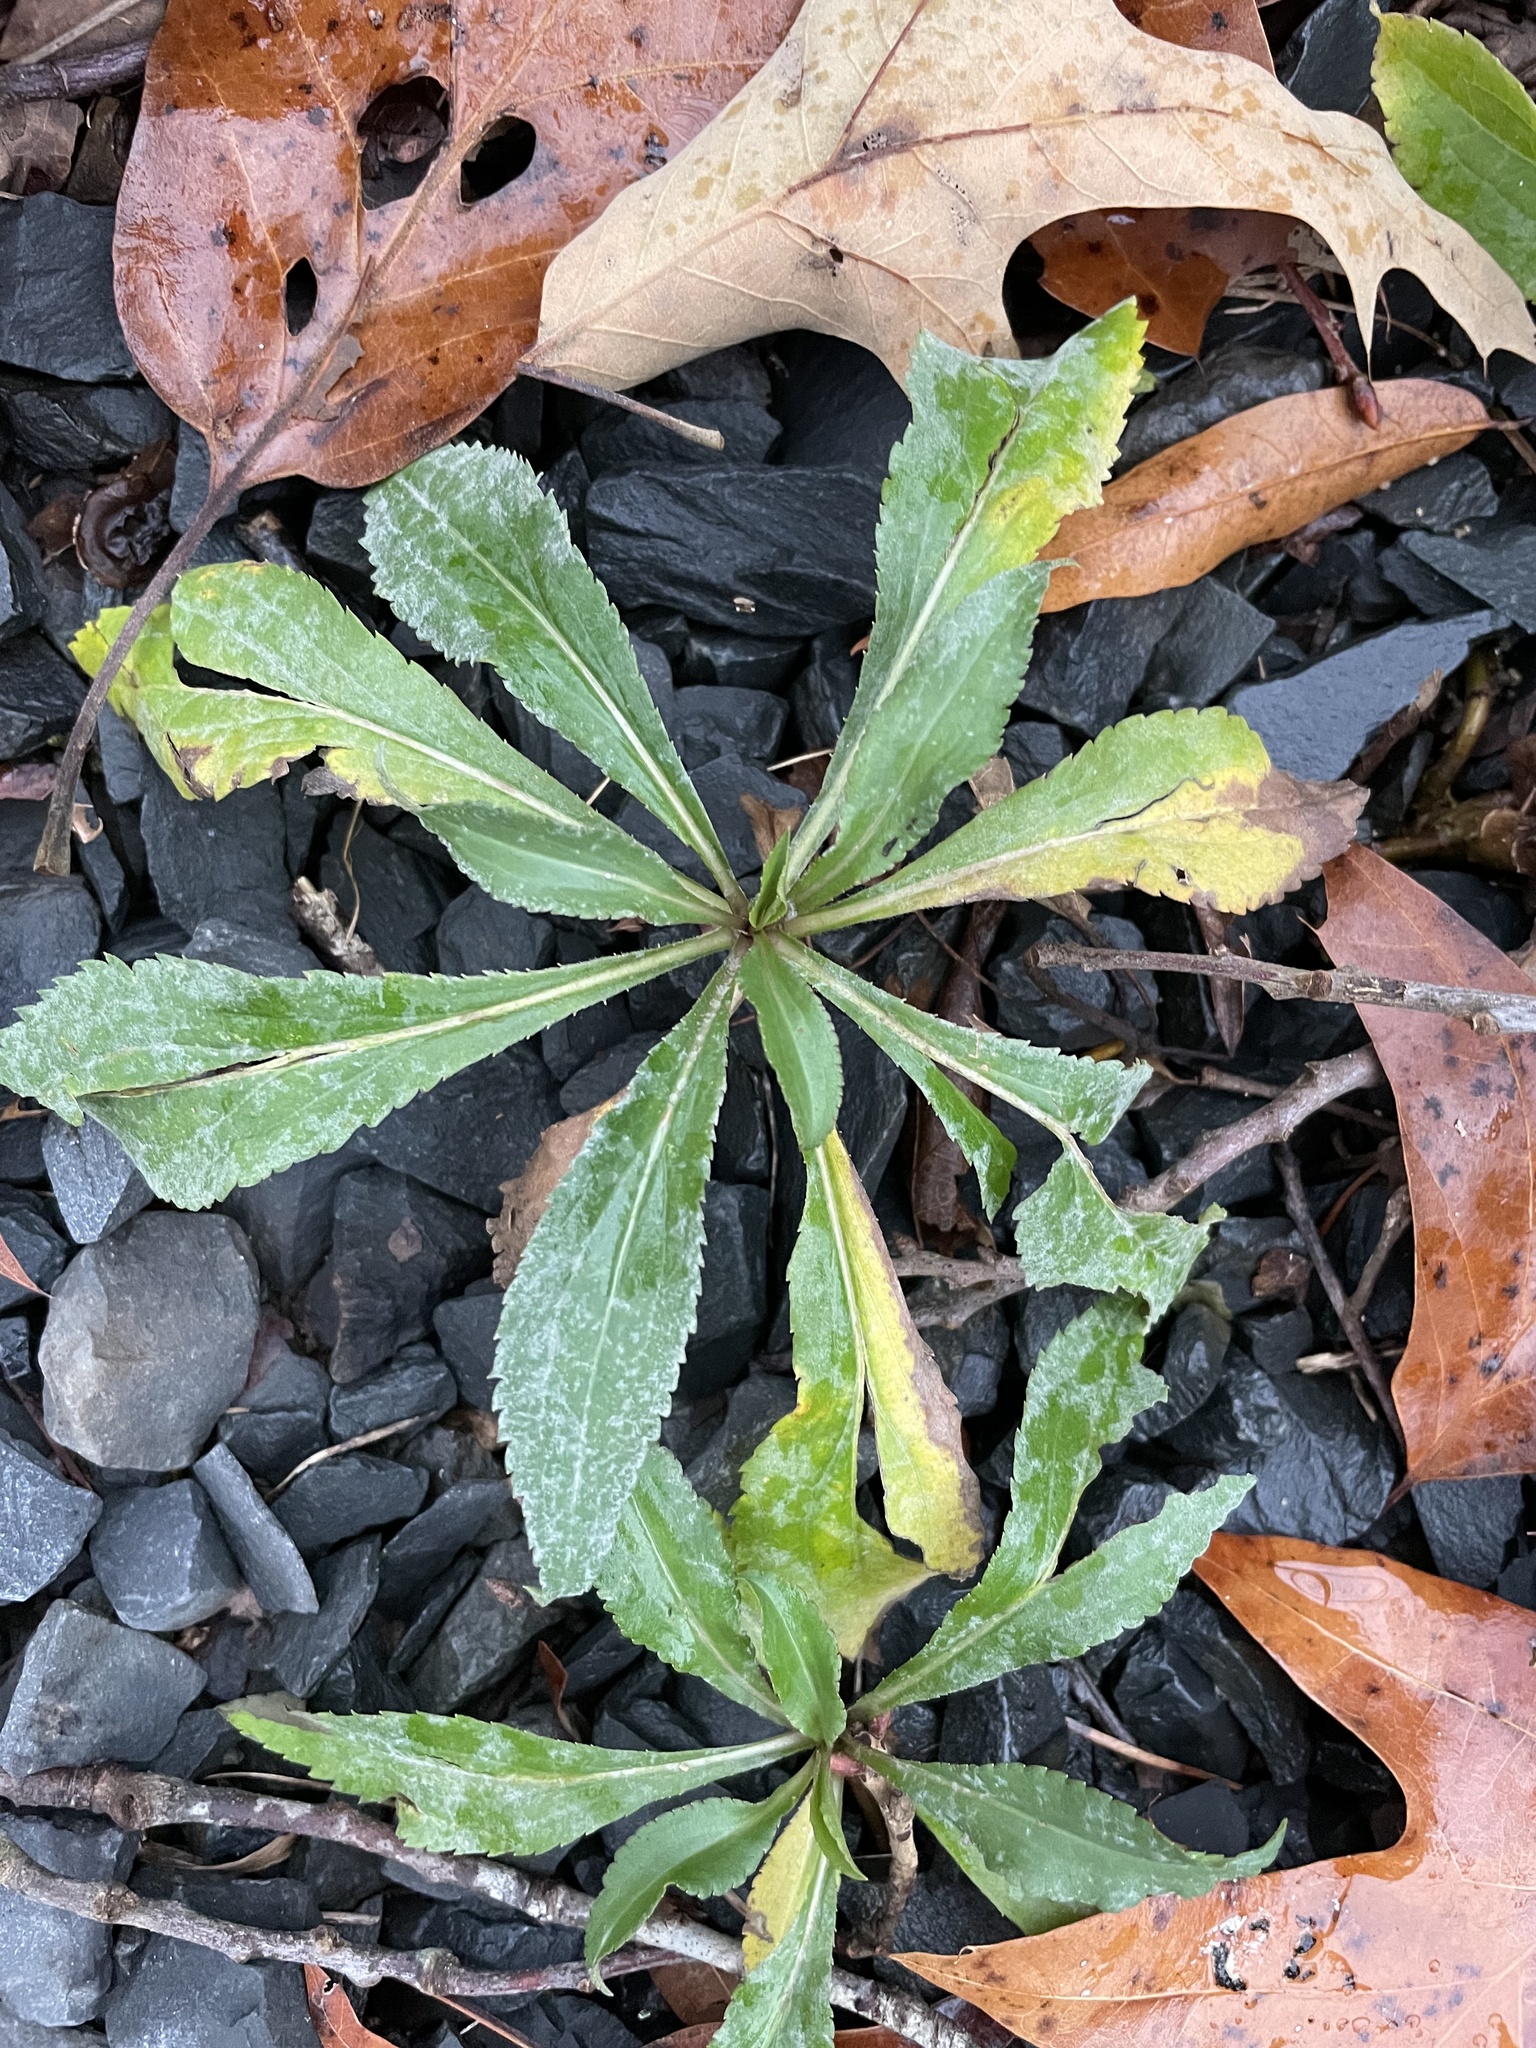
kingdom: Plantae
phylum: Tracheophyta
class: Magnoliopsida
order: Asterales
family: Asteraceae
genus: Solidago
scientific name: Solidago gigantea
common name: Giant goldenrod
